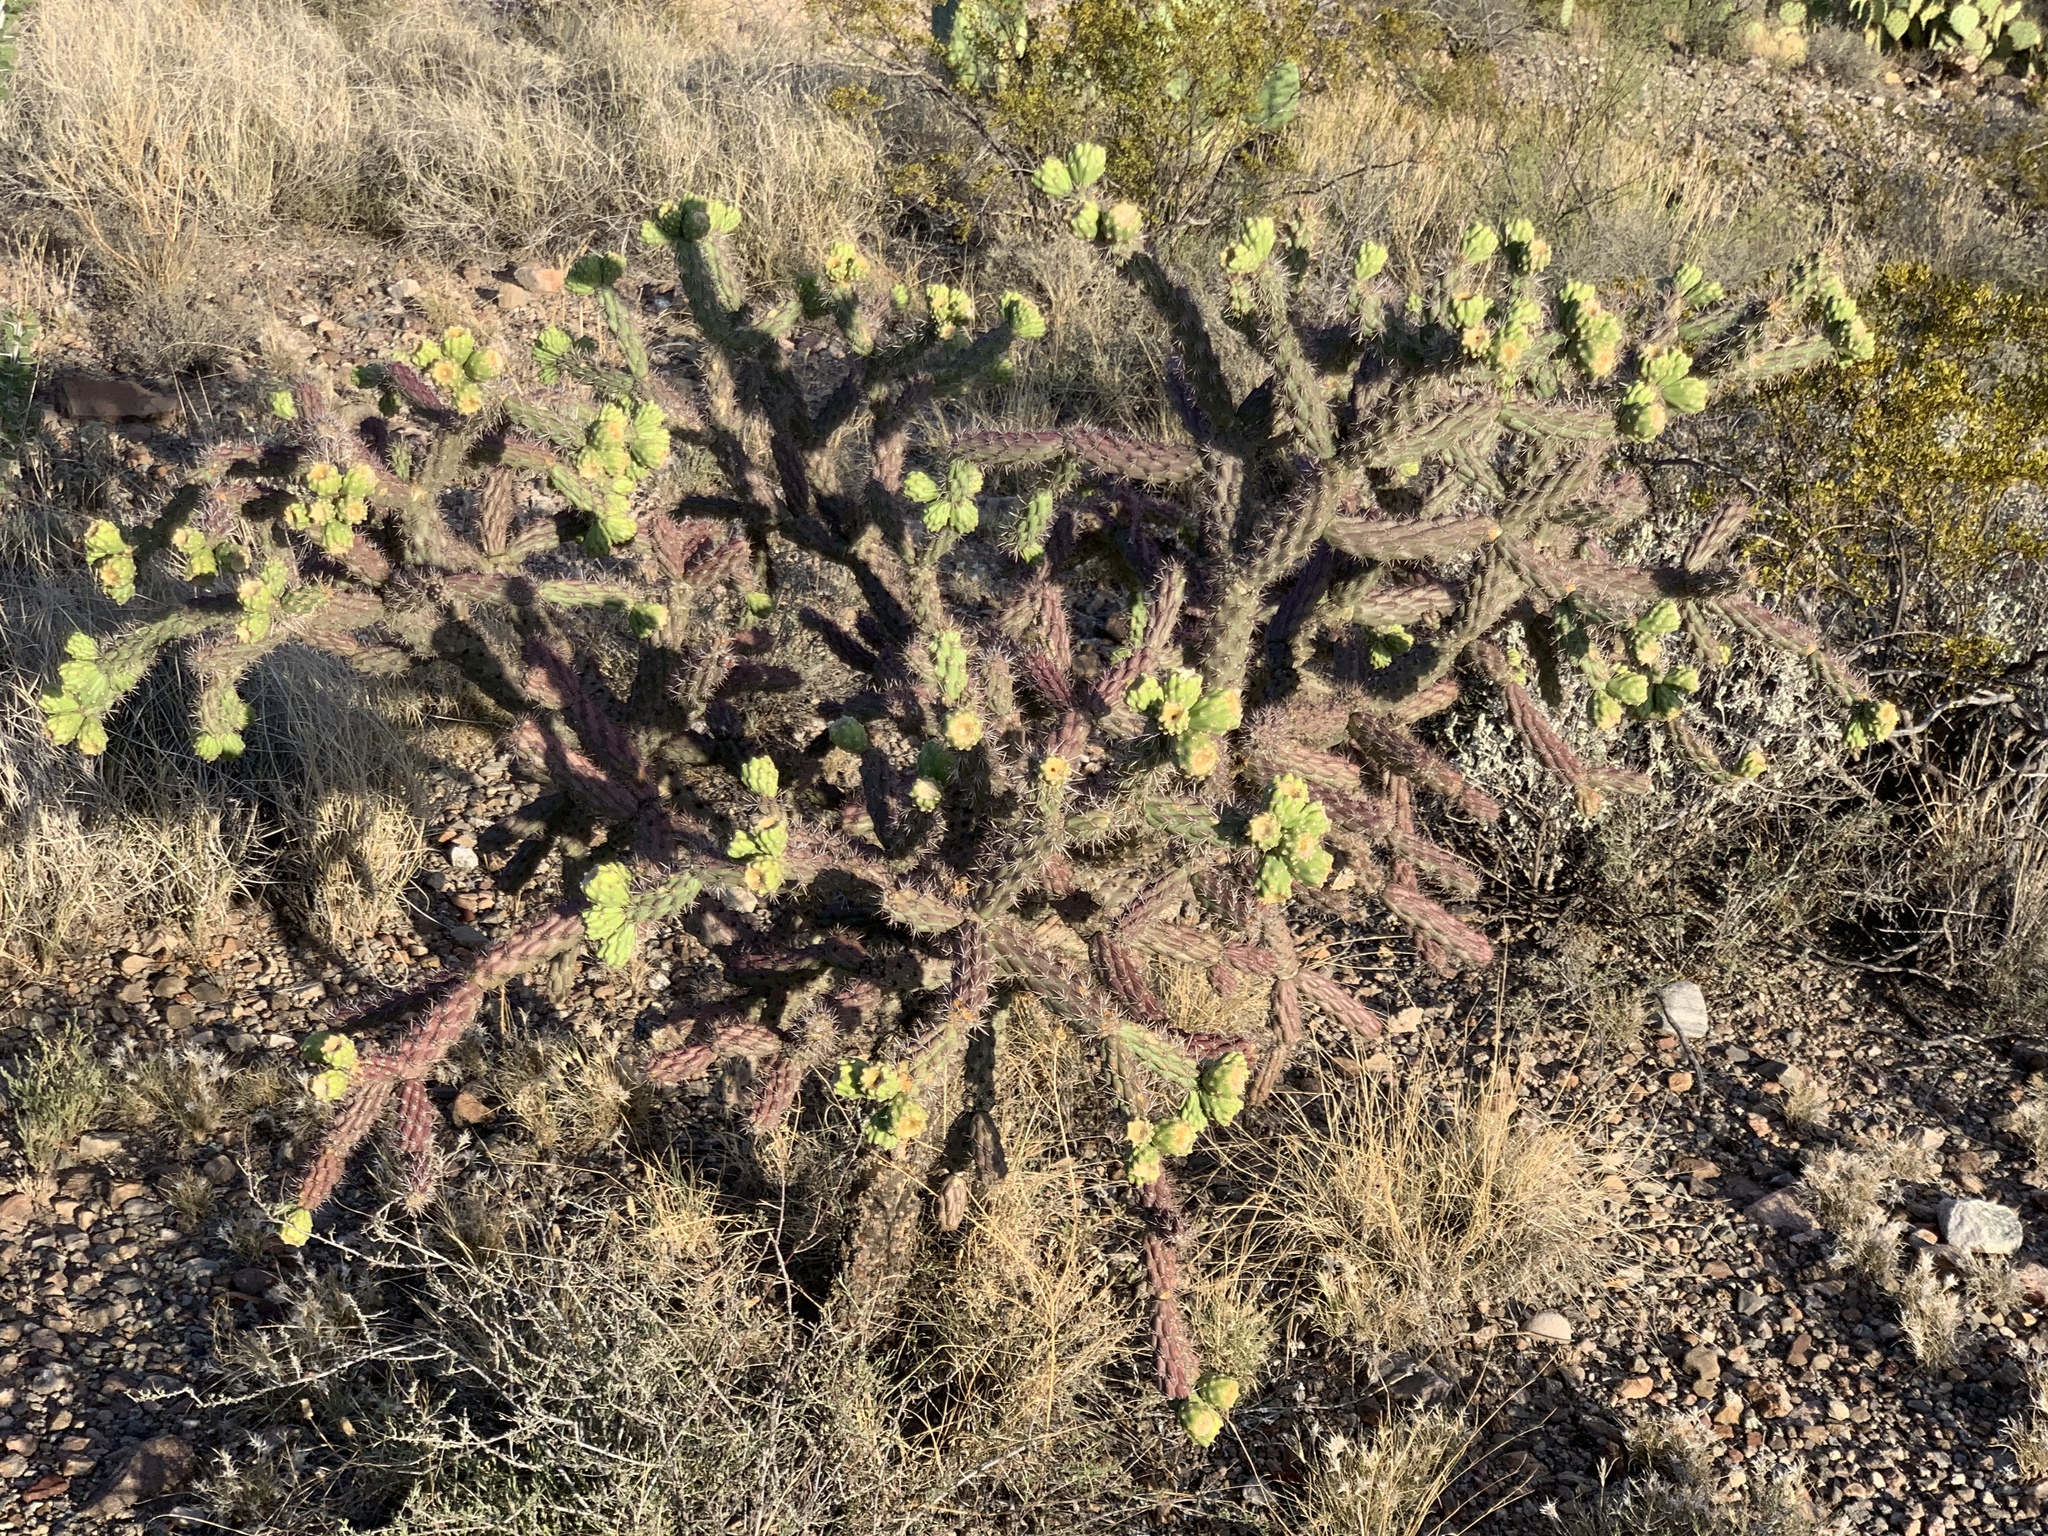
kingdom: Plantae
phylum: Tracheophyta
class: Magnoliopsida
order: Caryophyllales
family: Cactaceae
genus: Cylindropuntia
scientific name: Cylindropuntia thurberi
